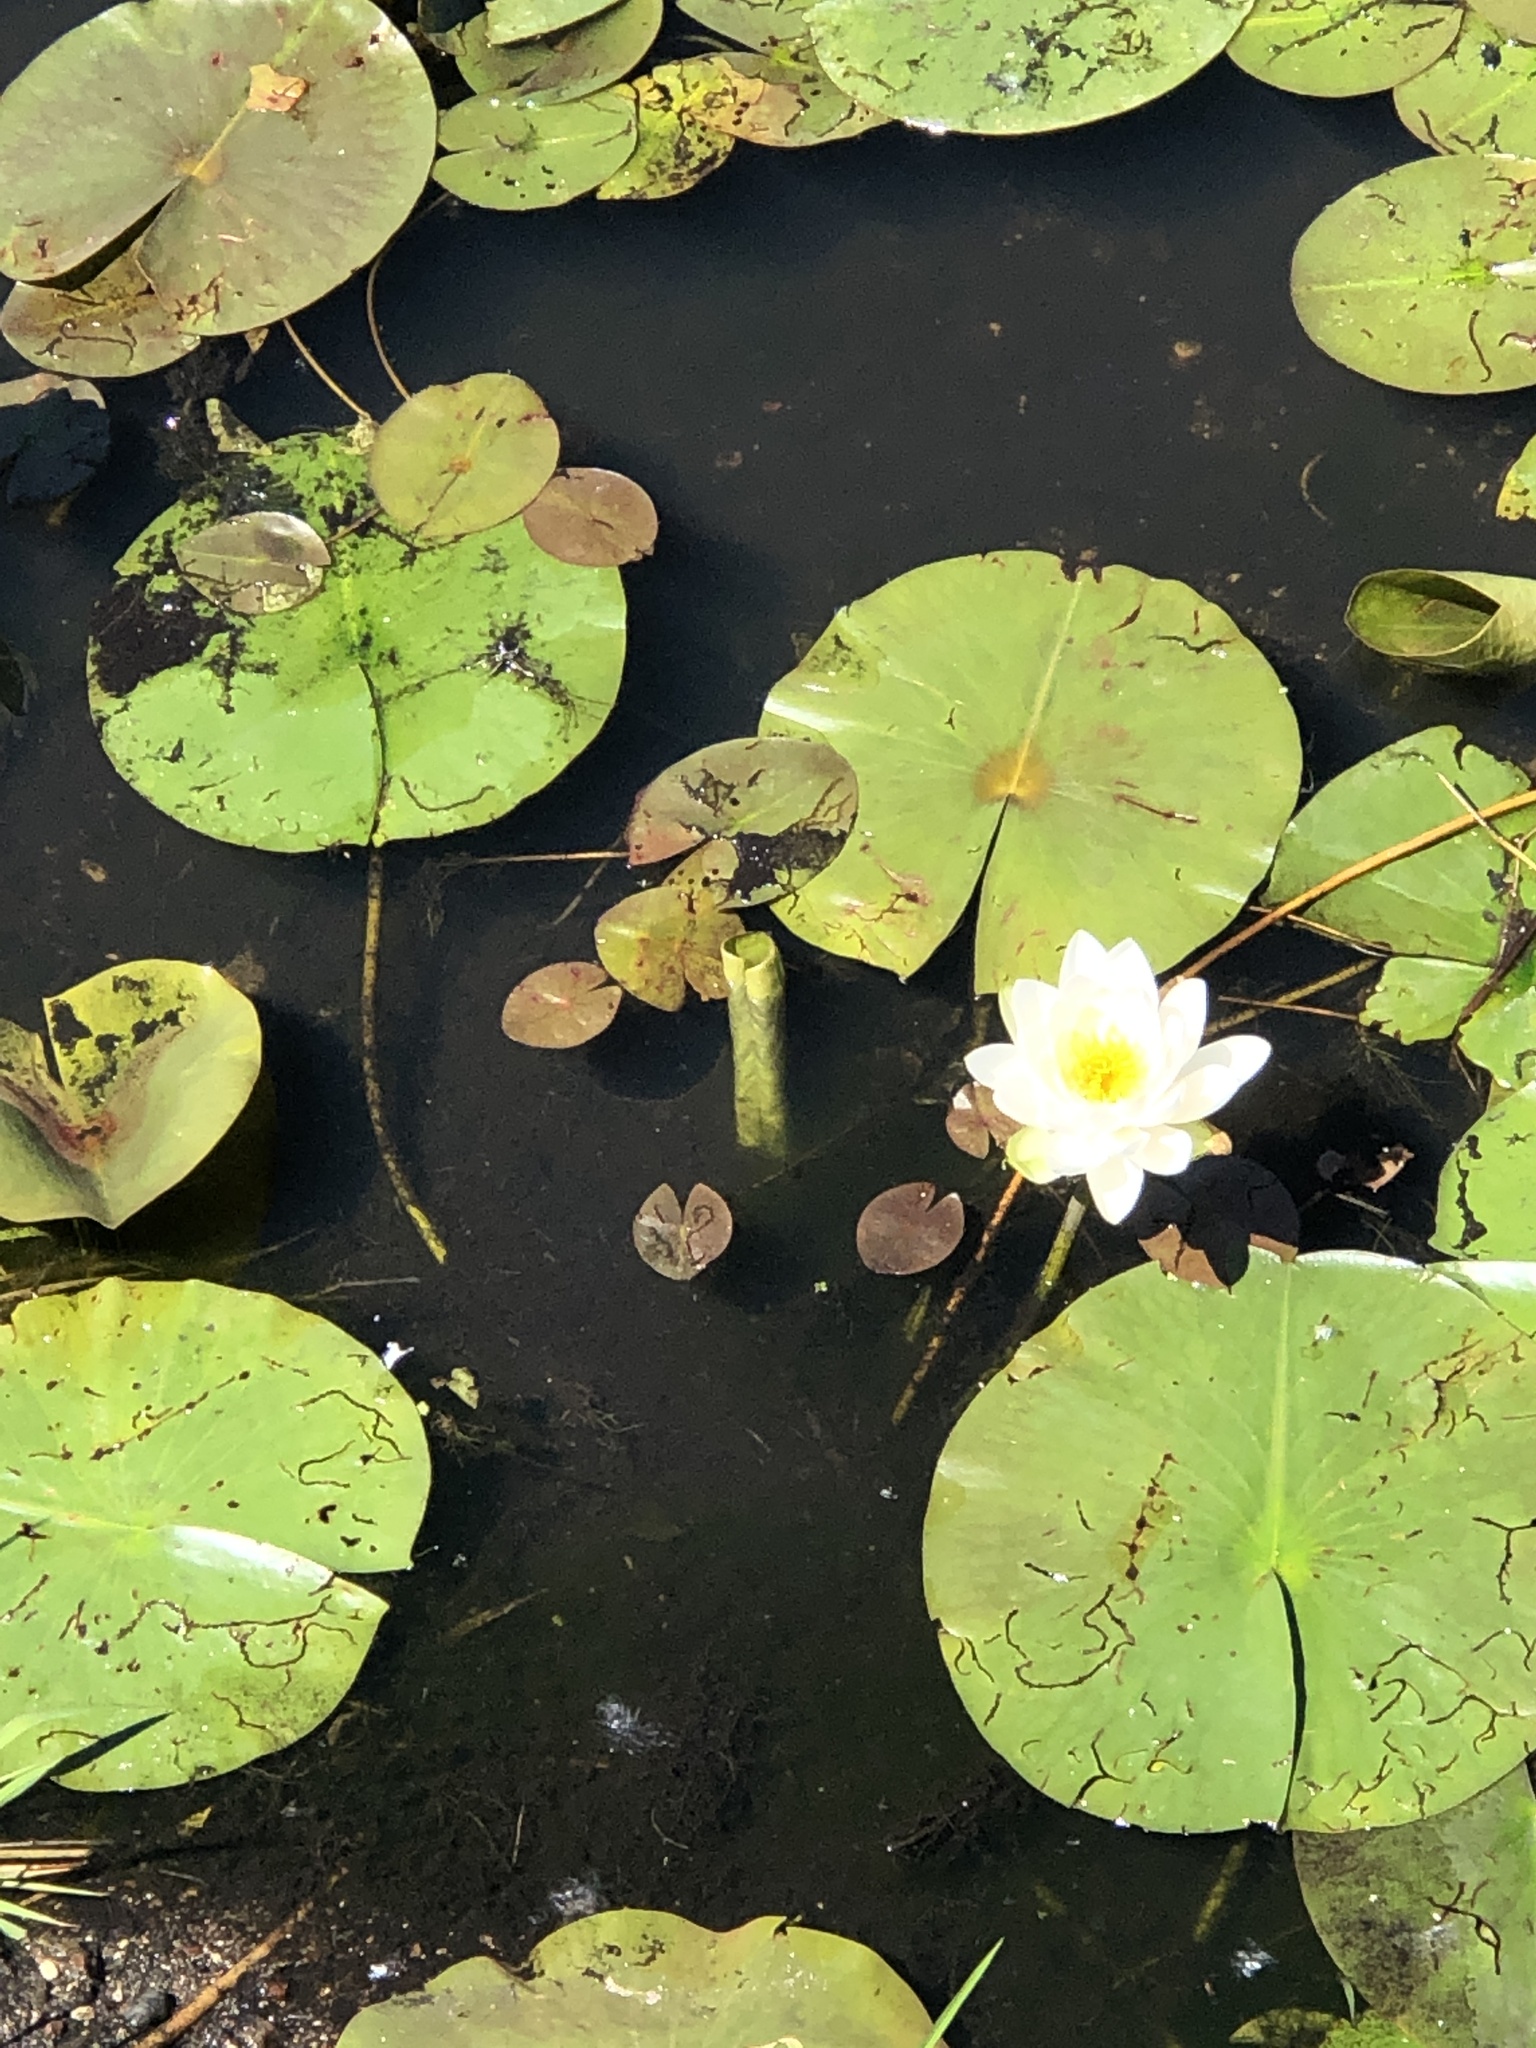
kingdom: Plantae
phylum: Tracheophyta
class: Magnoliopsida
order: Nymphaeales
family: Nymphaeaceae
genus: Nymphaea
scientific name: Nymphaea odorata
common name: Fragrant water-lily
